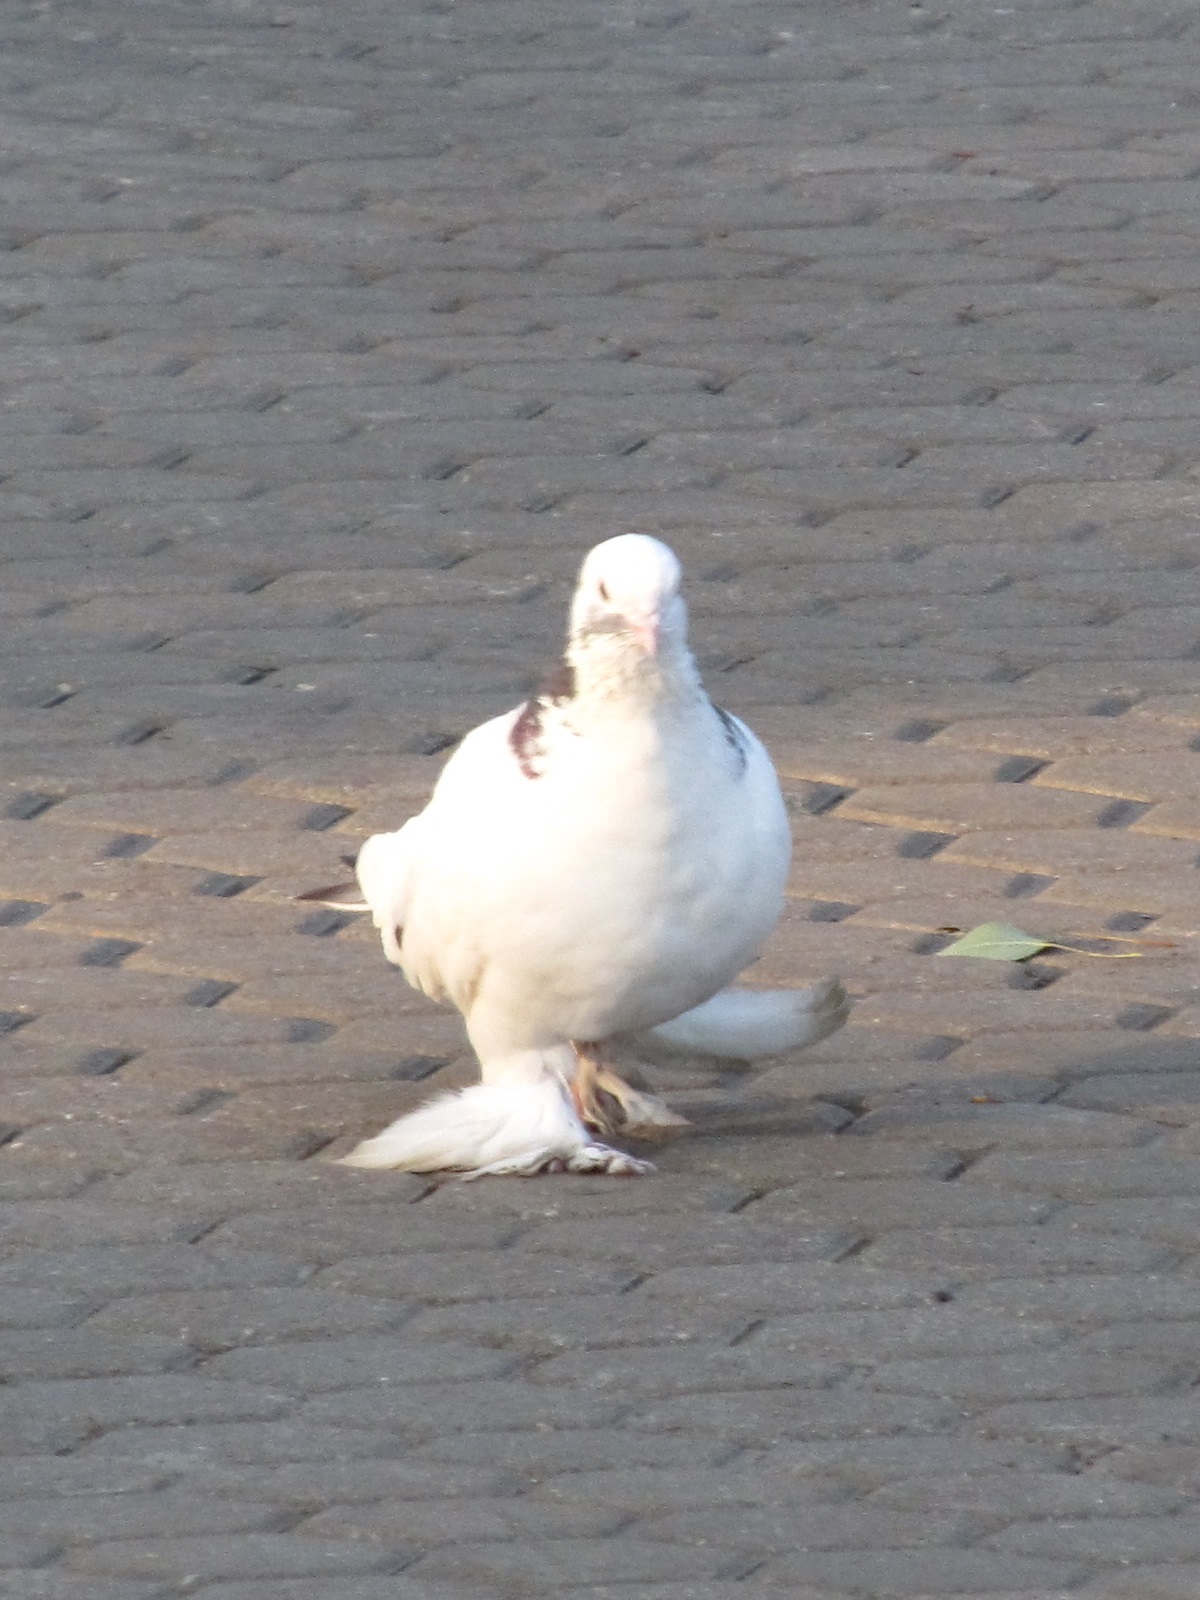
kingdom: Animalia
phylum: Chordata
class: Aves
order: Columbiformes
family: Columbidae
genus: Columba
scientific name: Columba livia
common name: Rock pigeon
